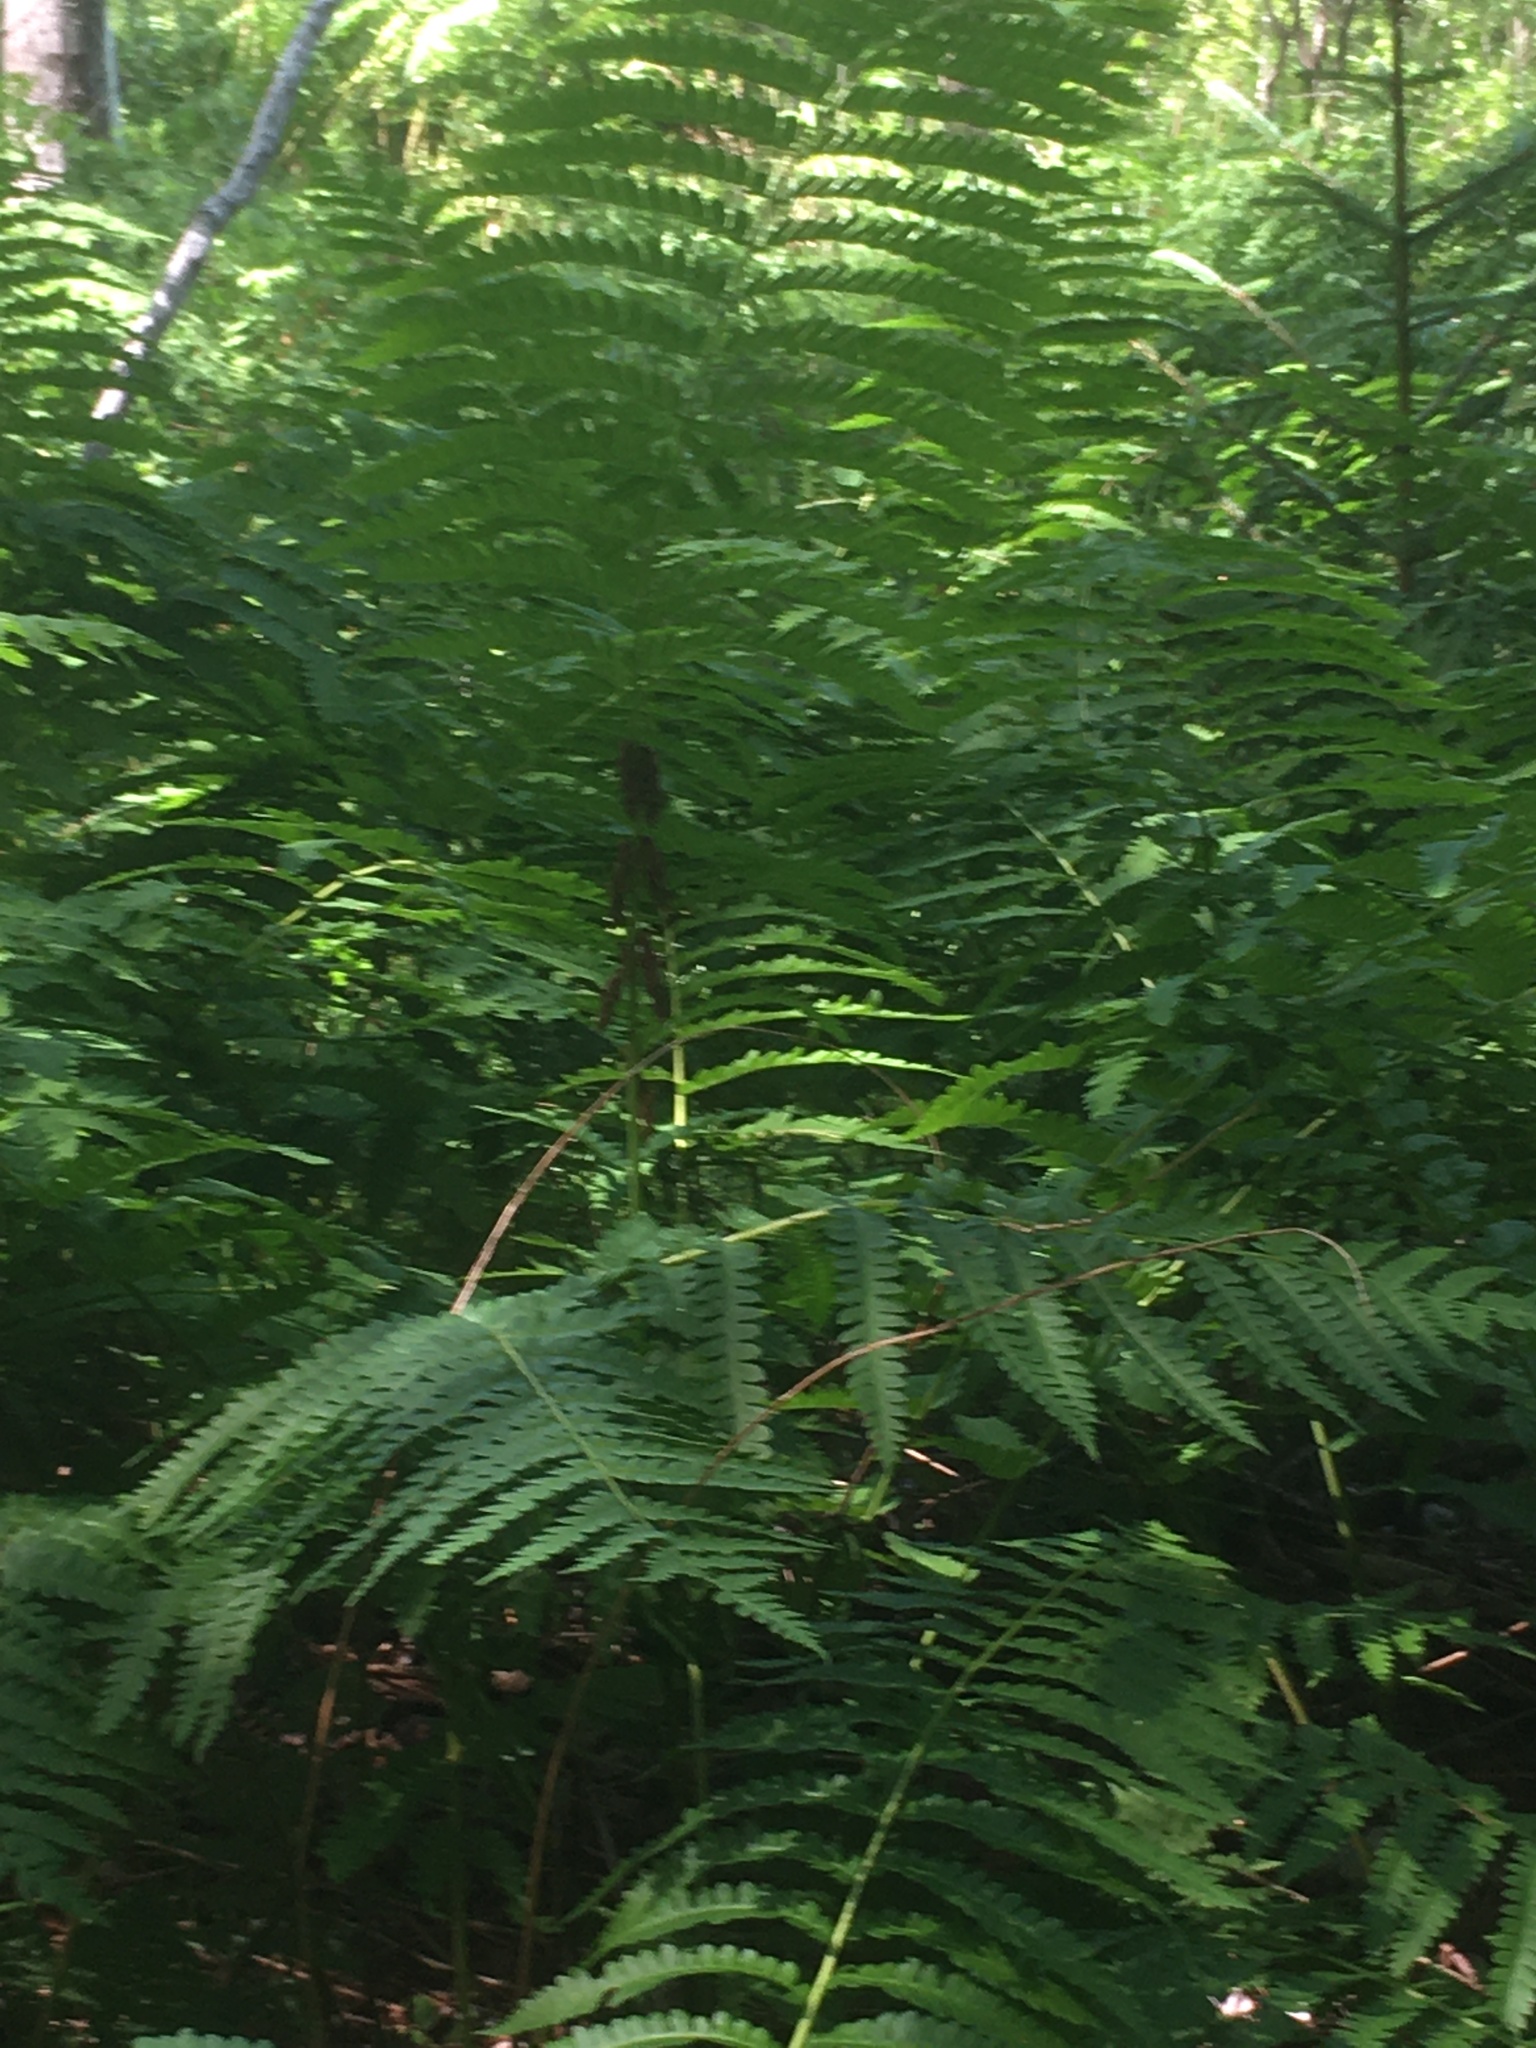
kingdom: Plantae
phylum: Tracheophyta
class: Polypodiopsida
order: Osmundales
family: Osmundaceae
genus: Claytosmunda
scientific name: Claytosmunda claytoniana
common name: Clayton's fern
